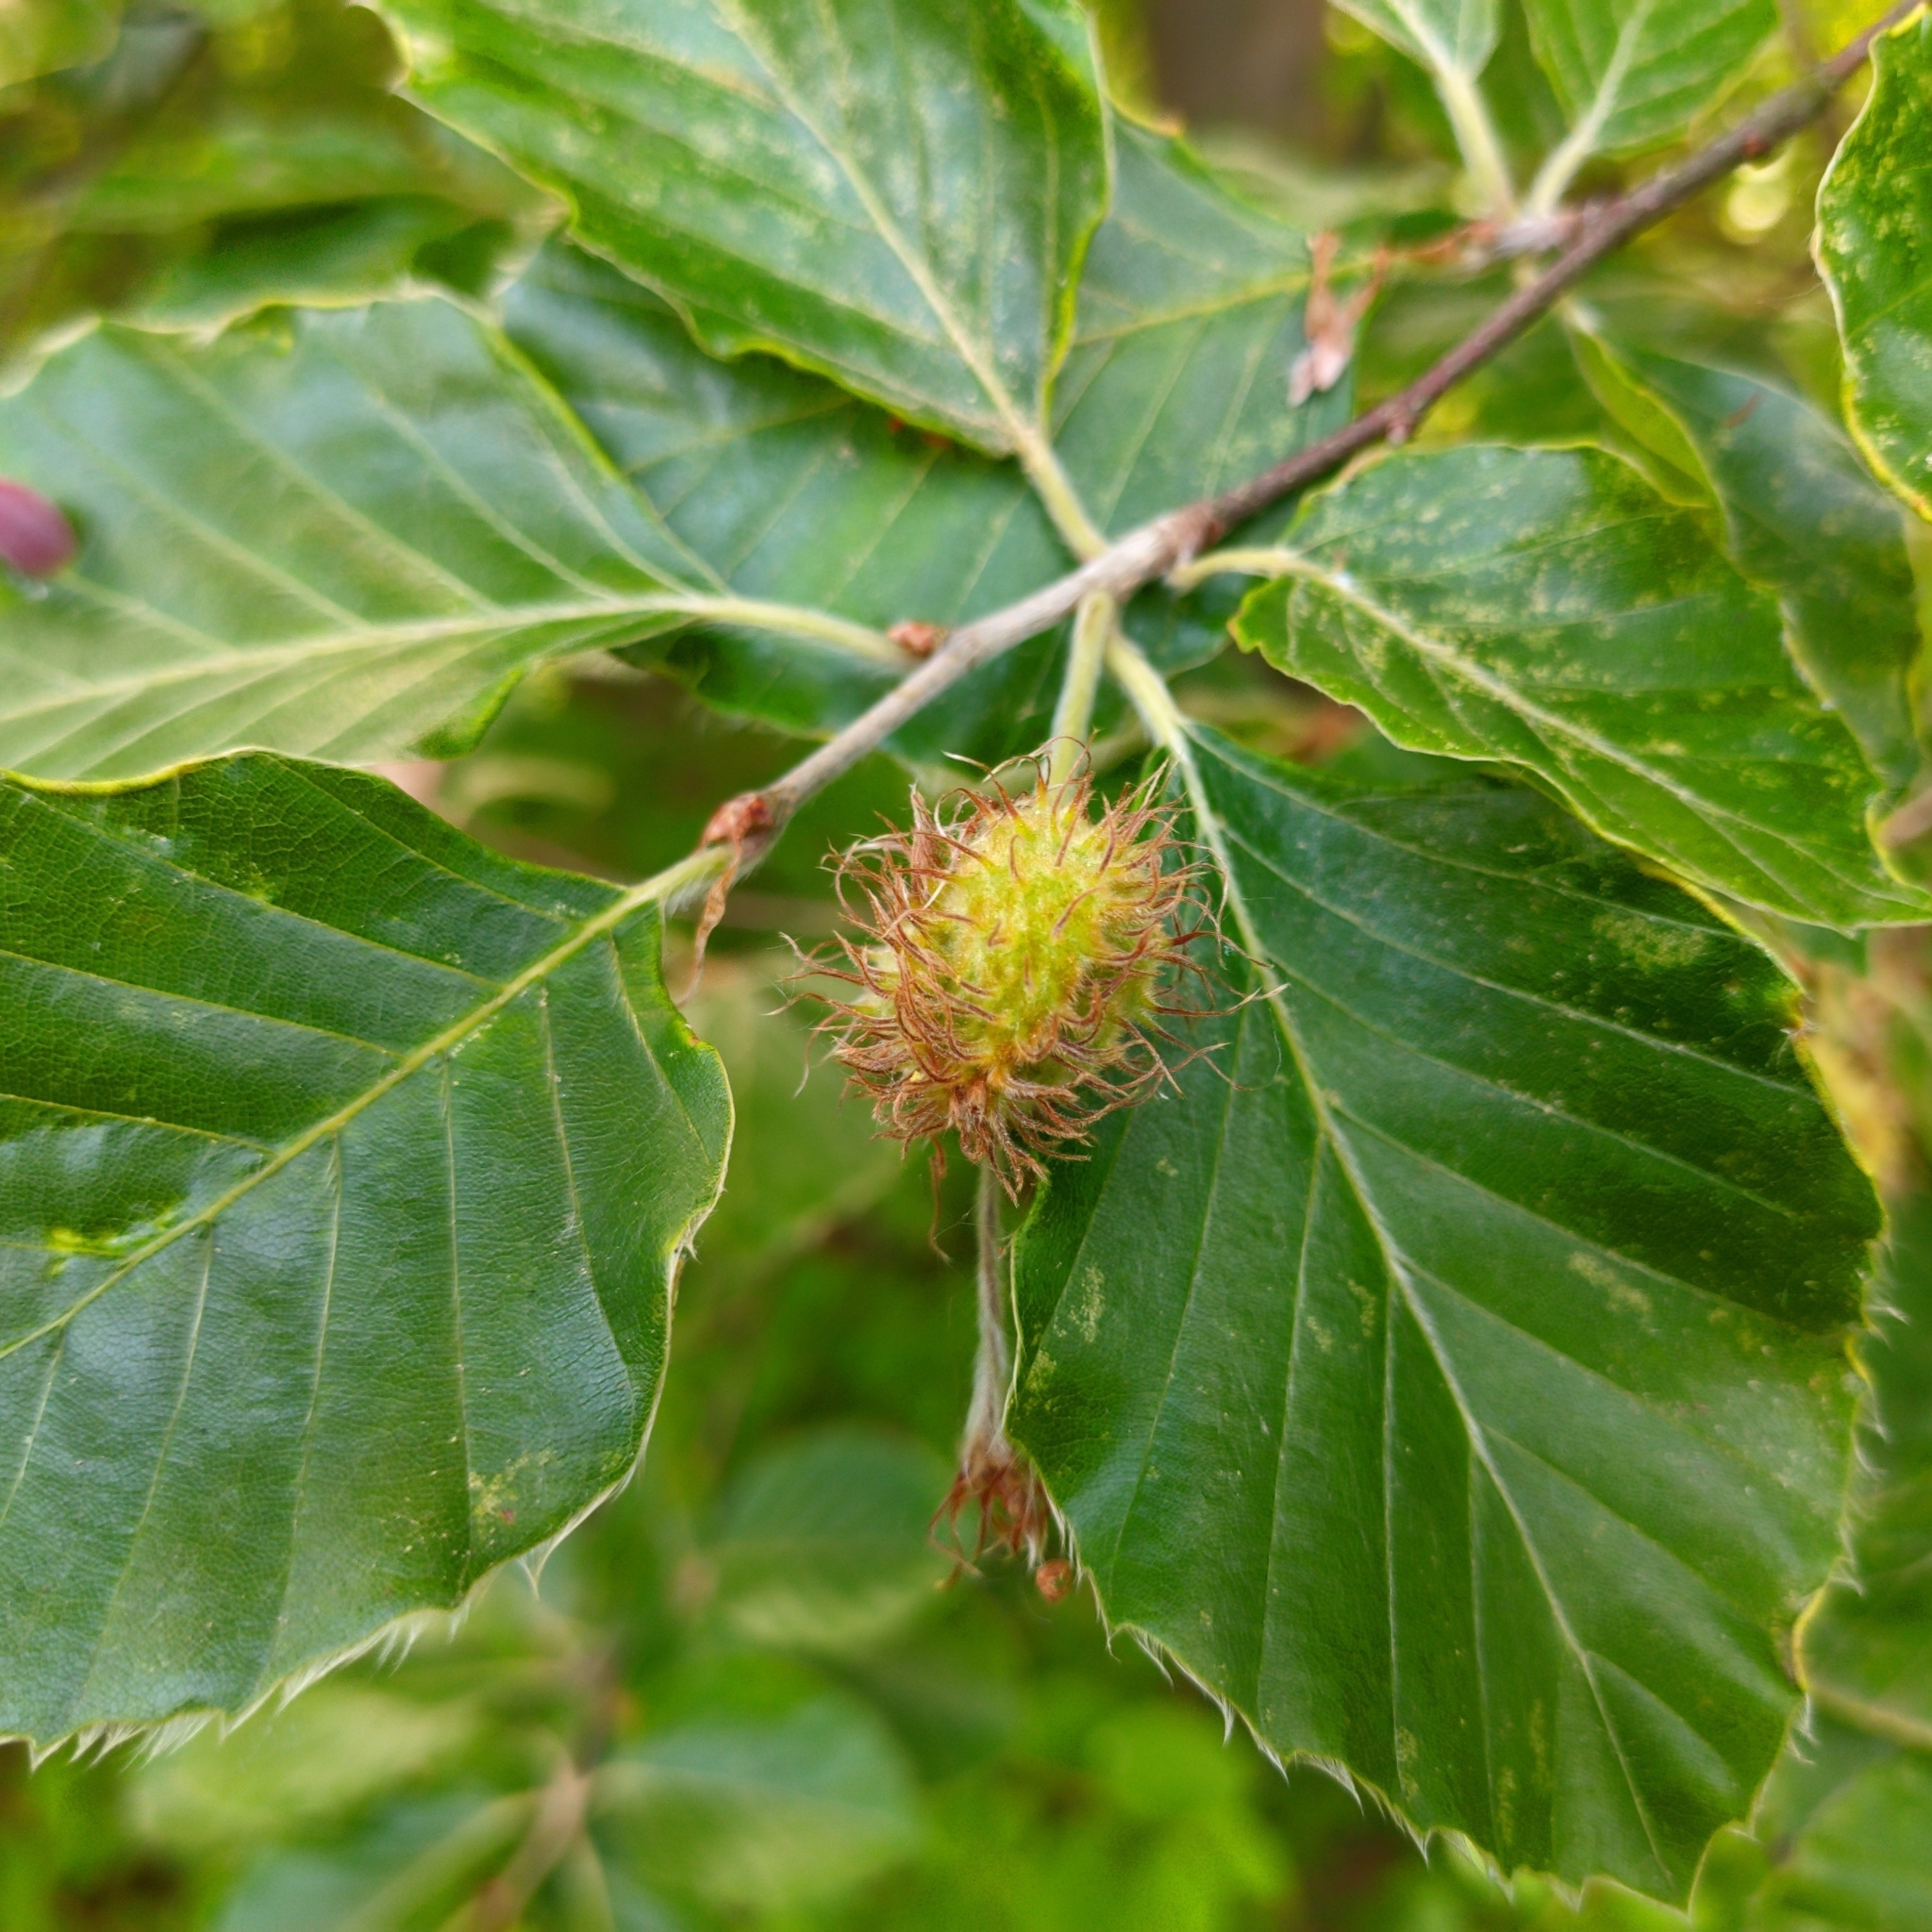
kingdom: Plantae
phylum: Tracheophyta
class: Magnoliopsida
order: Fagales
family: Fagaceae
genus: Fagus
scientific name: Fagus sylvatica
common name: Beech
